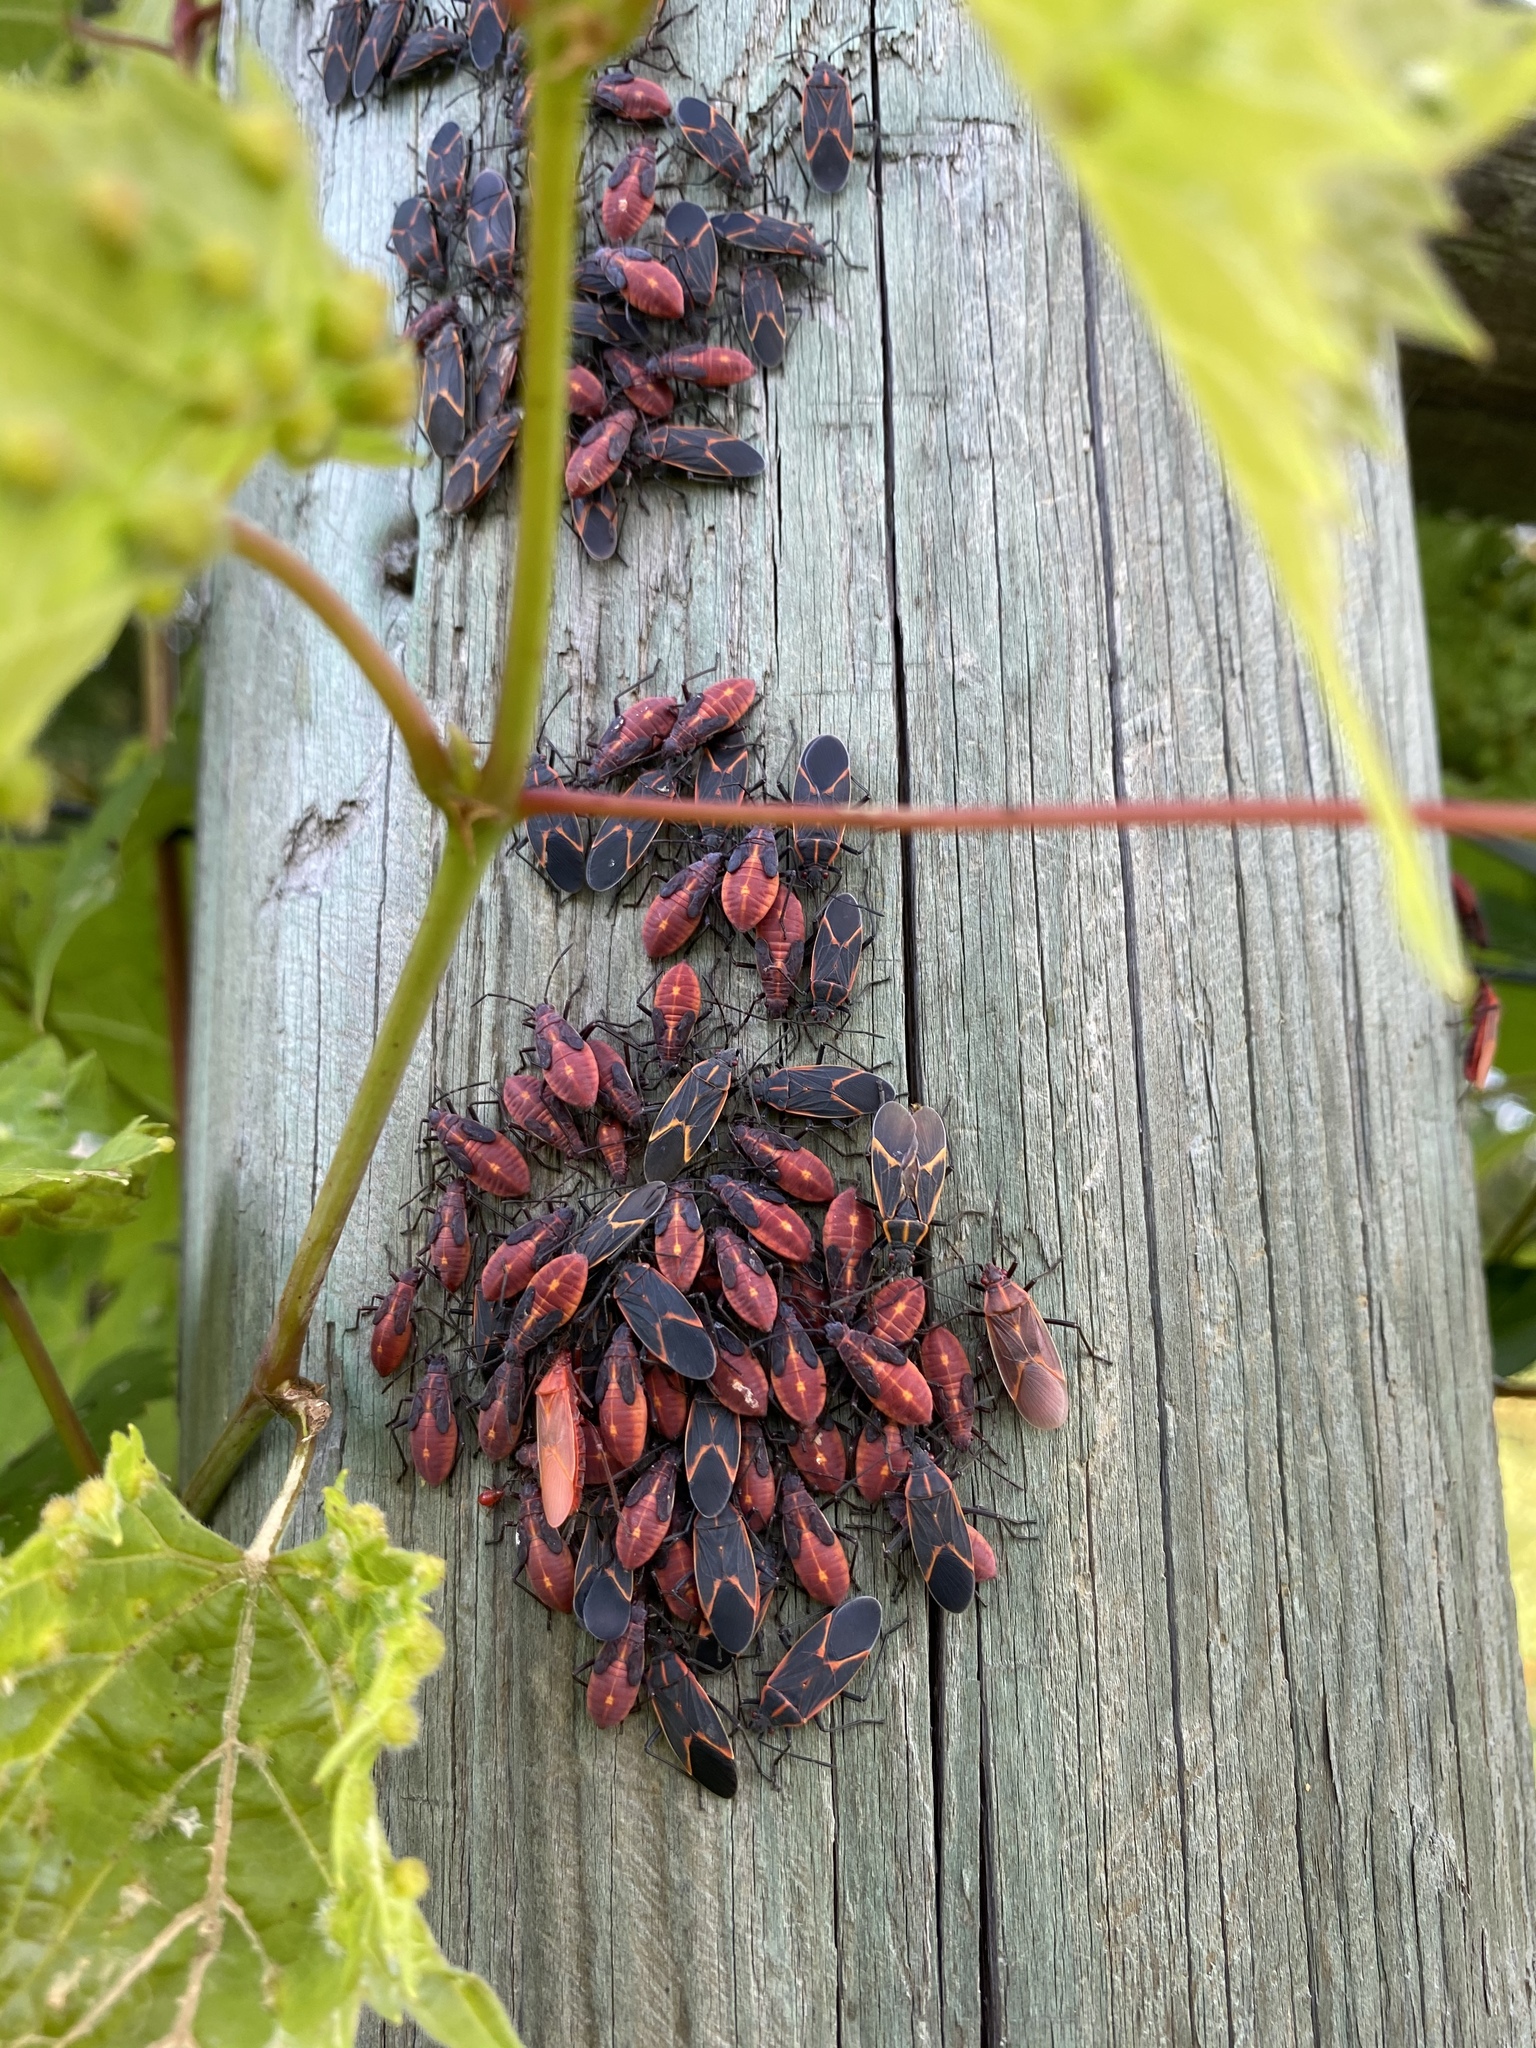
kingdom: Animalia
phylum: Arthropoda
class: Insecta
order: Hemiptera
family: Rhopalidae
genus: Boisea
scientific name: Boisea trivittata
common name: Boxelder bug
